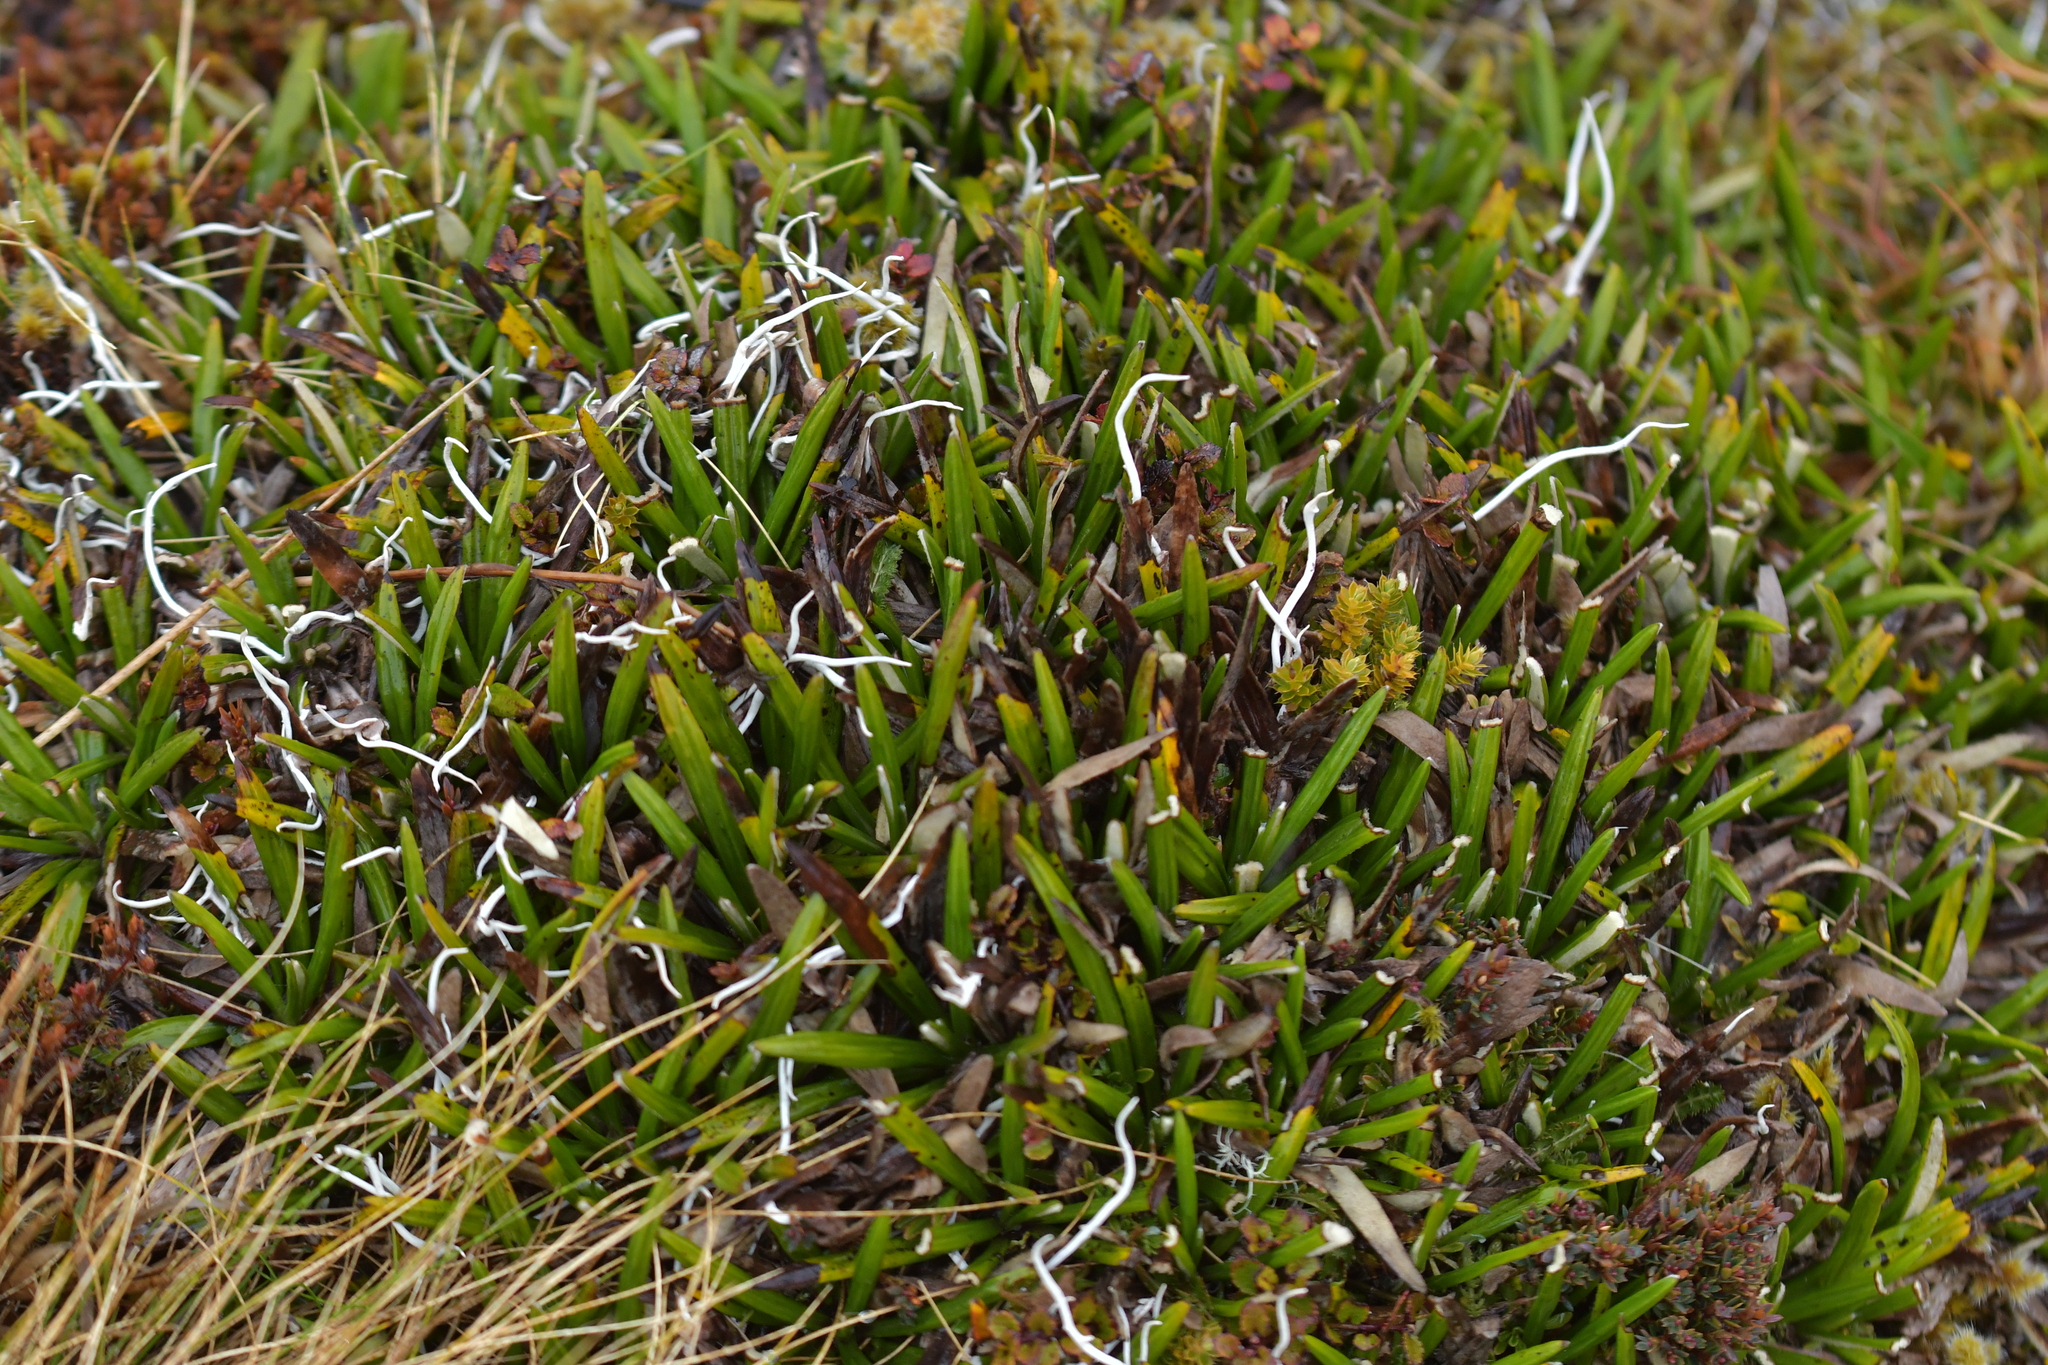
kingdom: Plantae
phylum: Tracheophyta
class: Magnoliopsida
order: Asterales
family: Asteraceae
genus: Celmisia
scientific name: Celmisia spectabilis
